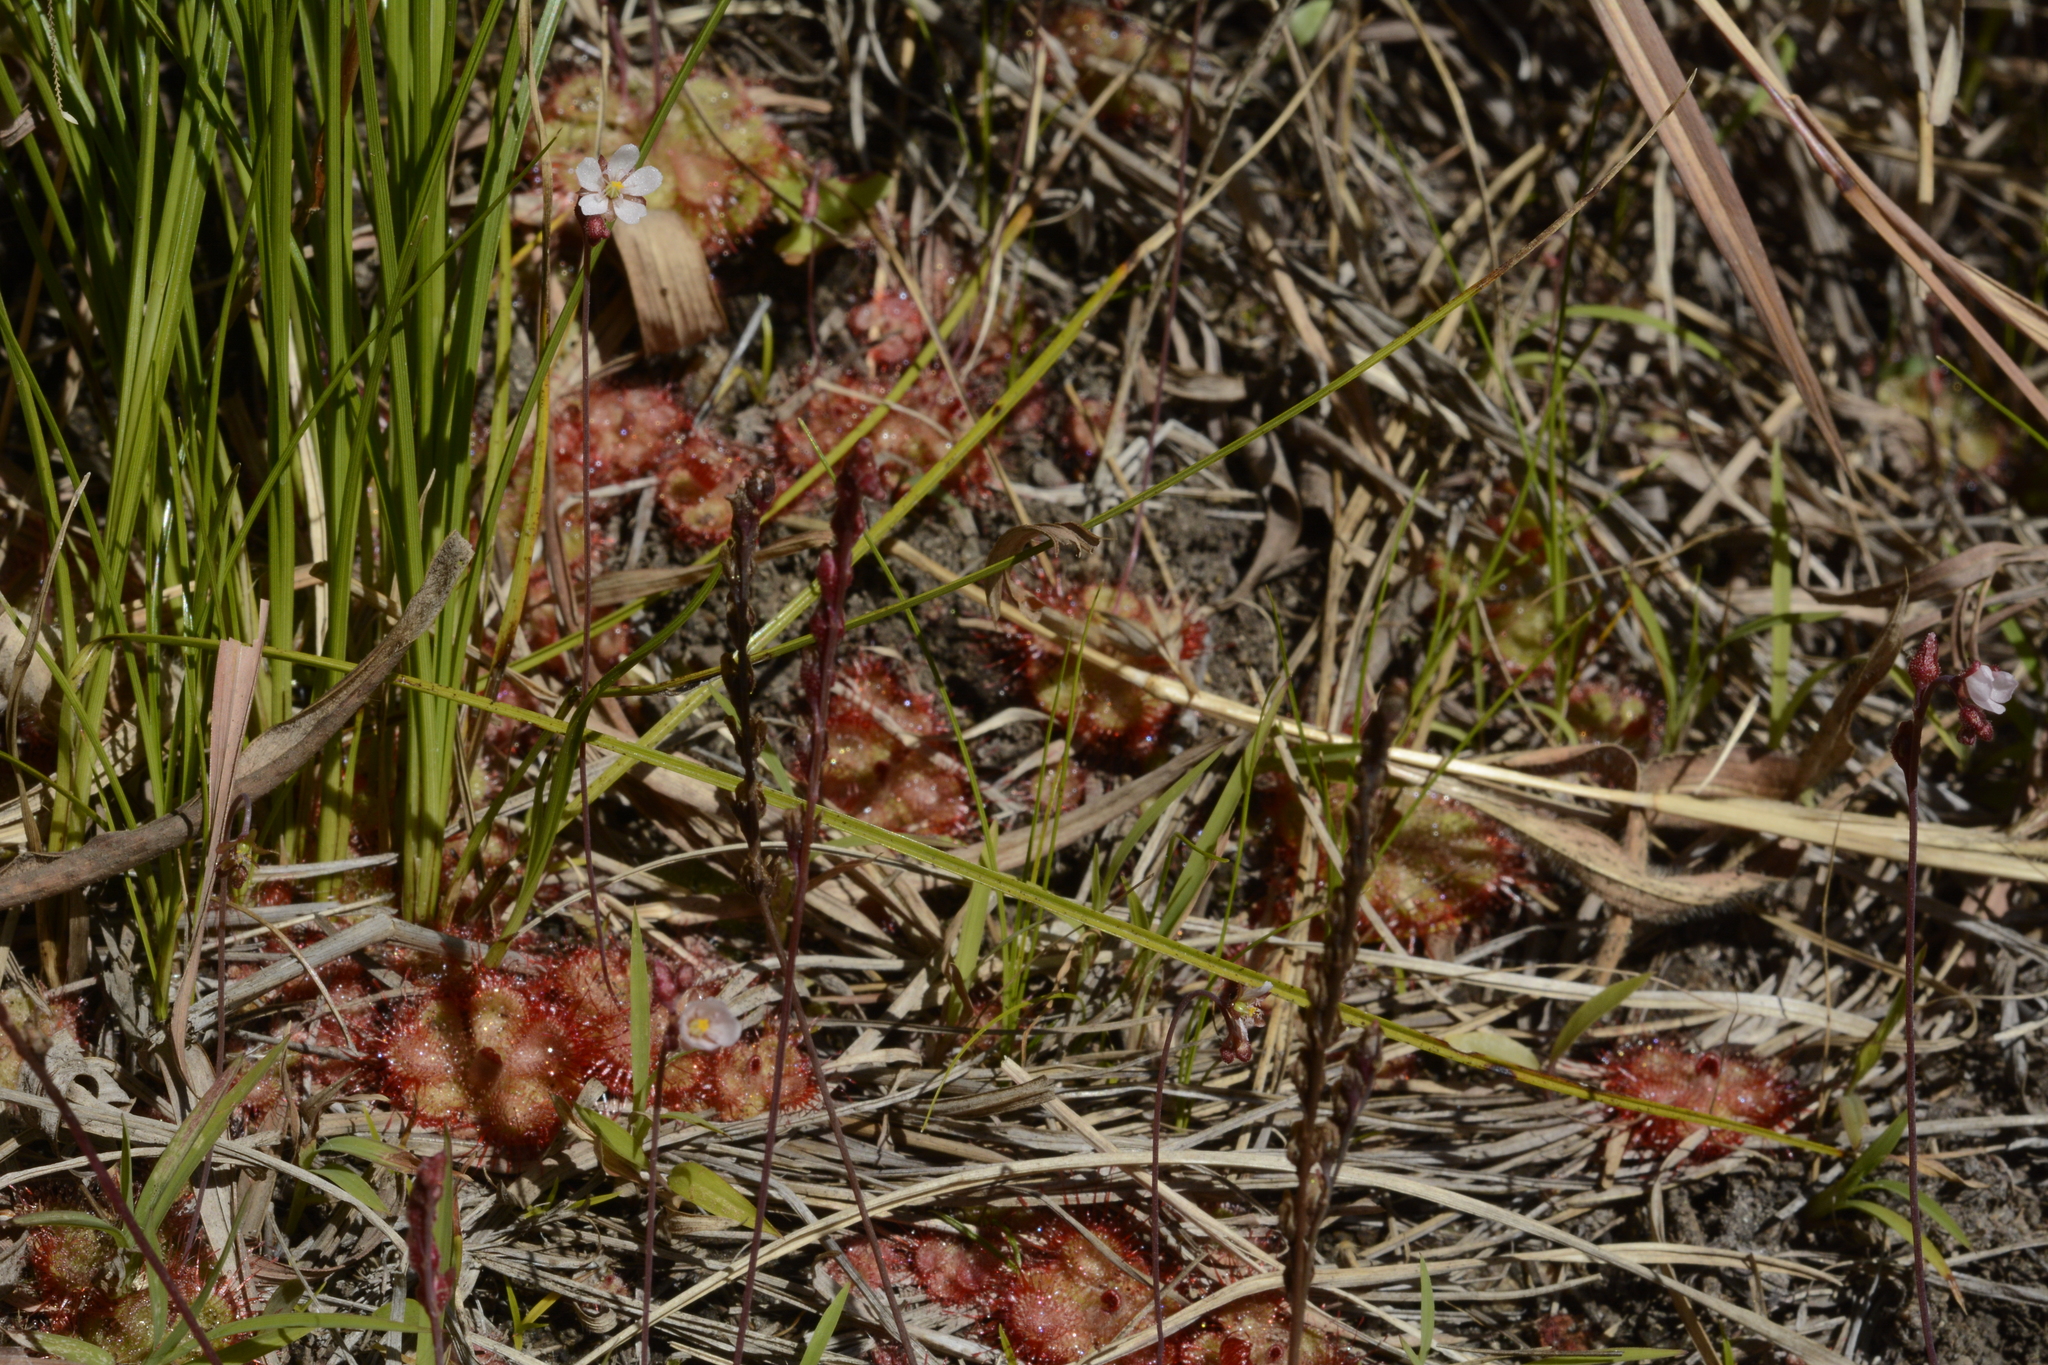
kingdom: Plantae
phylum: Tracheophyta
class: Magnoliopsida
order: Caryophyllales
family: Droseraceae
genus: Drosera
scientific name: Drosera spatulata
